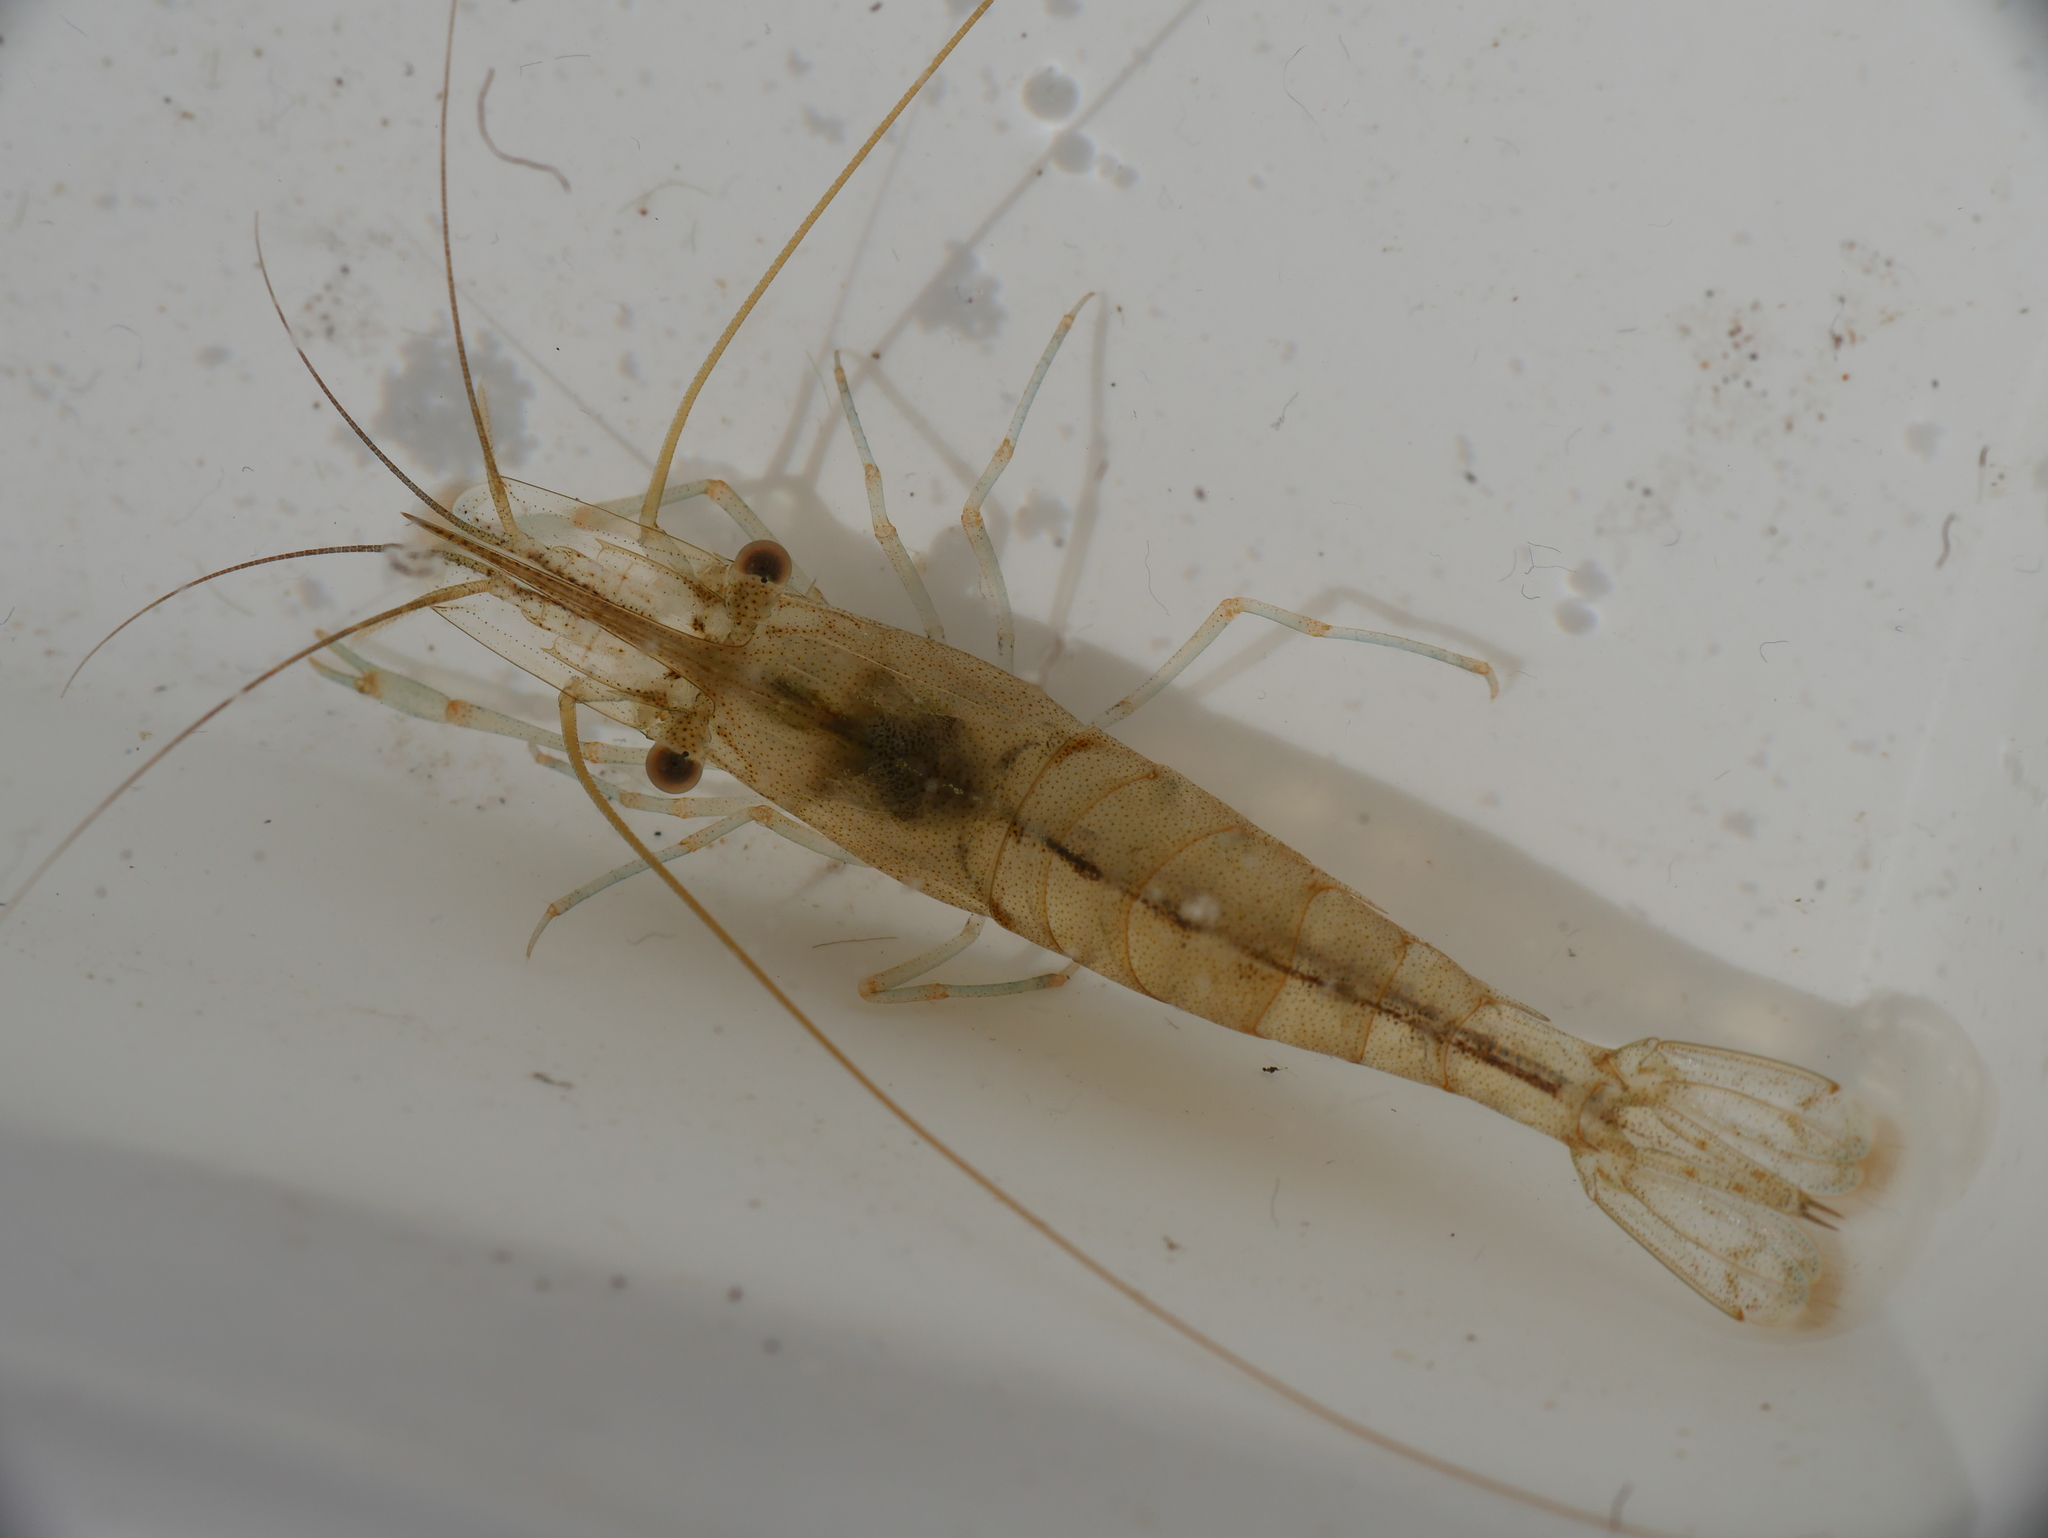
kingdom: Animalia
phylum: Arthropoda
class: Malacostraca
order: Decapoda
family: Palaemonidae
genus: Palaemon
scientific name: Palaemon adspersus
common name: Baltic prawn
